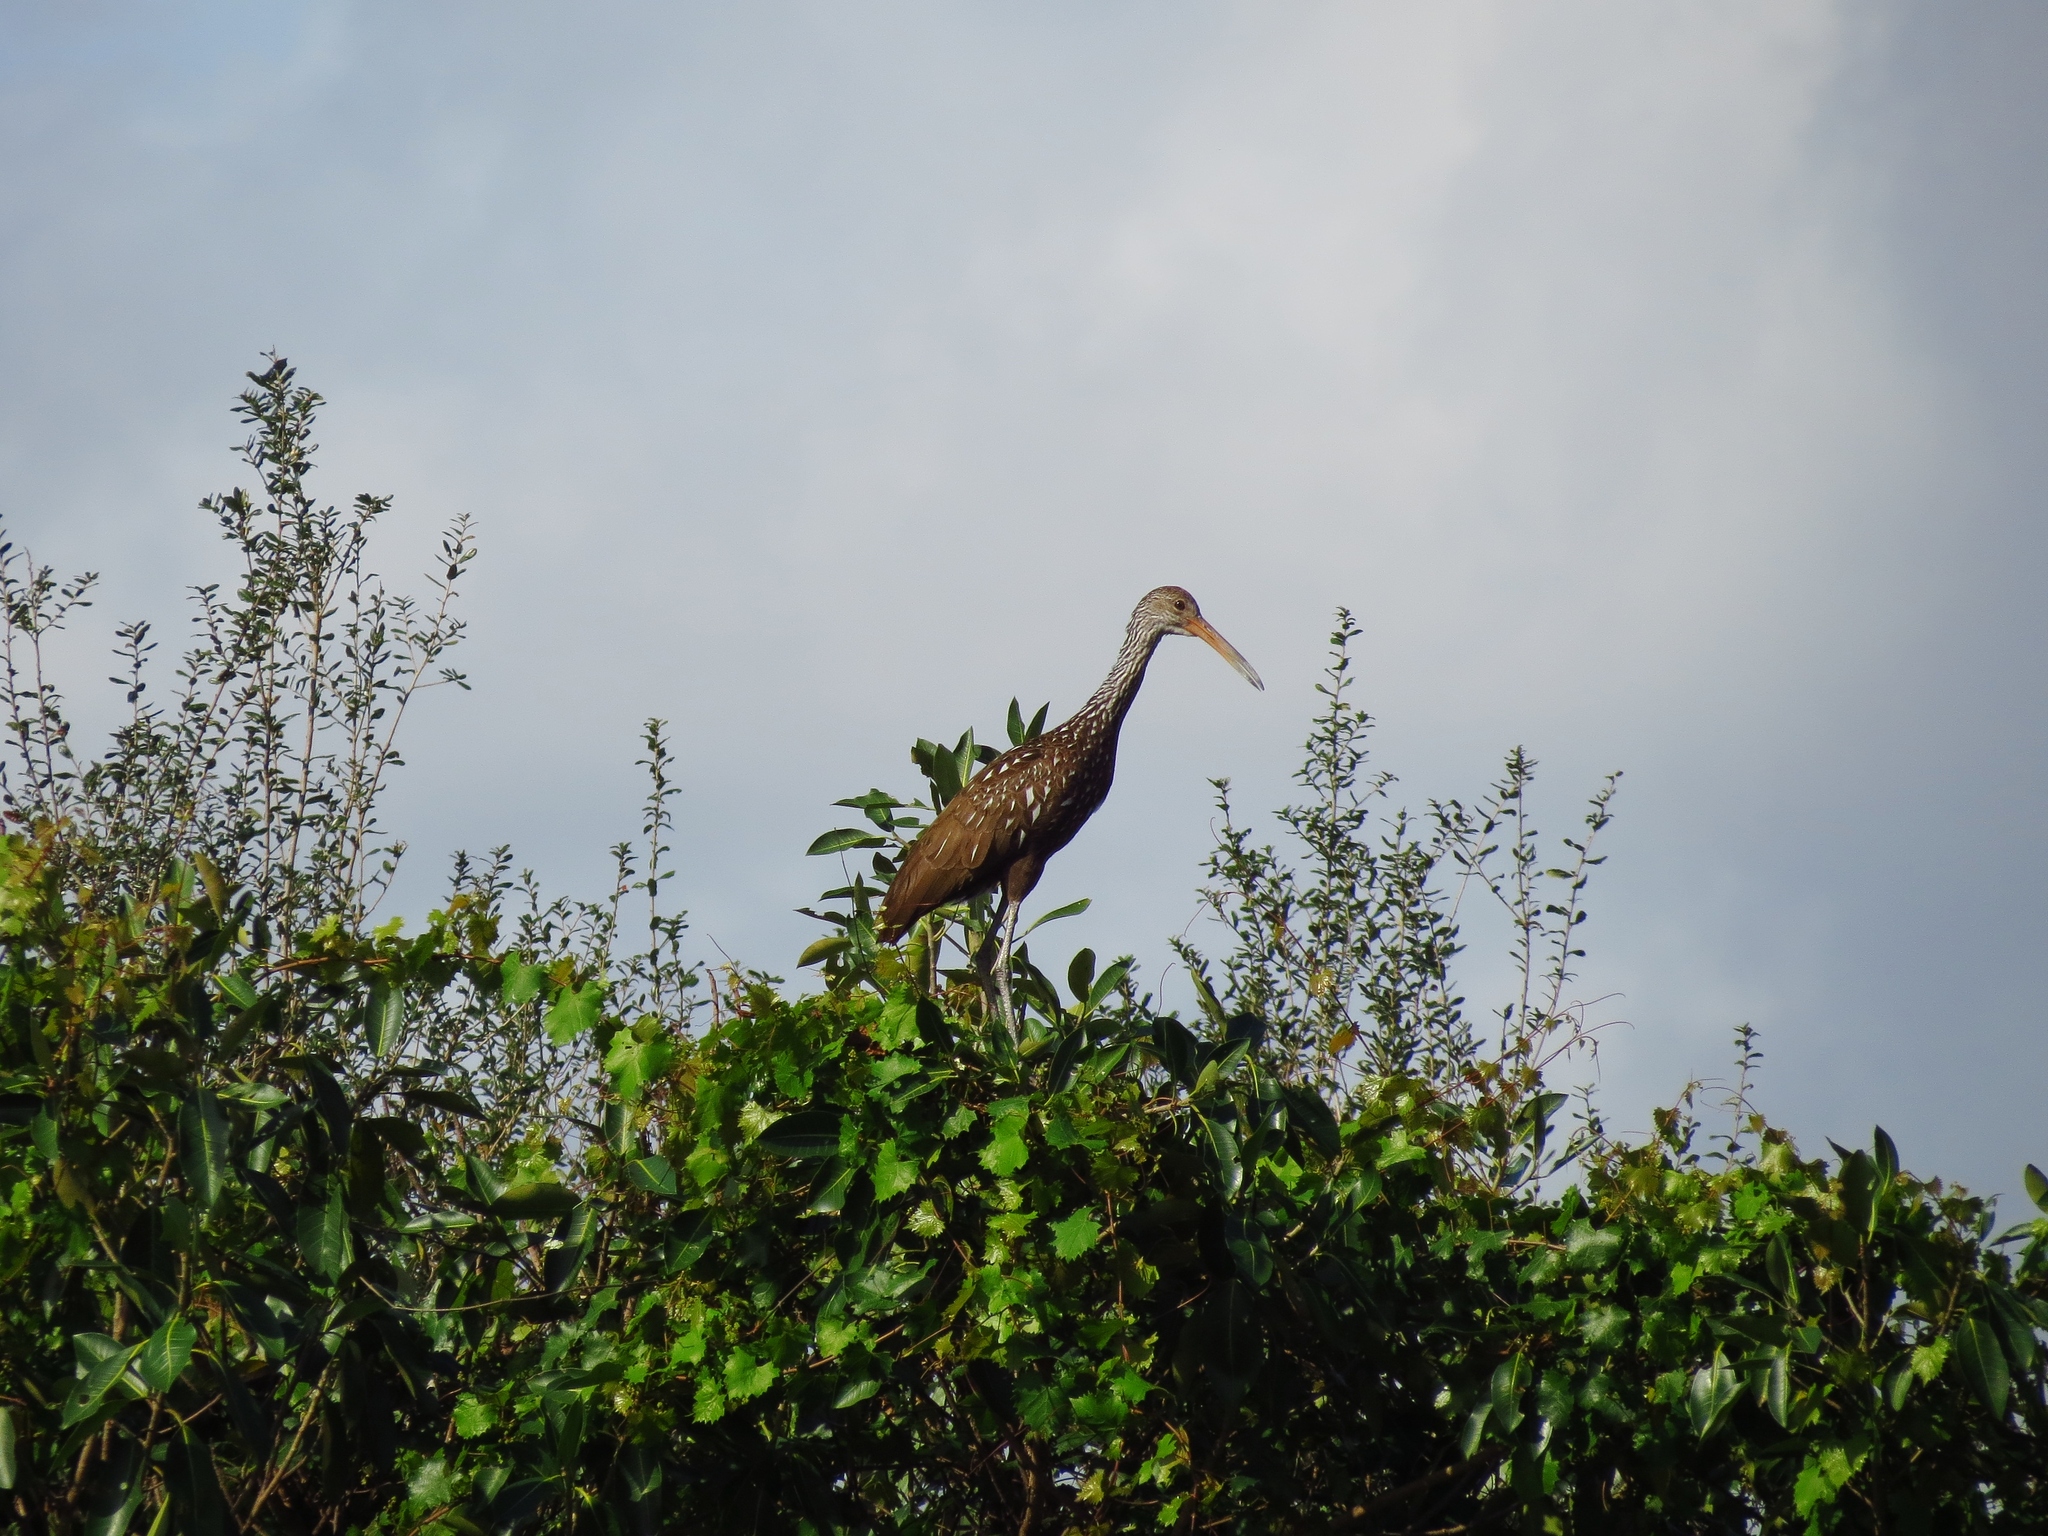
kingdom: Animalia
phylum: Chordata
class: Aves
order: Gruiformes
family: Aramidae
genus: Aramus
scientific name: Aramus guarauna
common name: Limpkin
